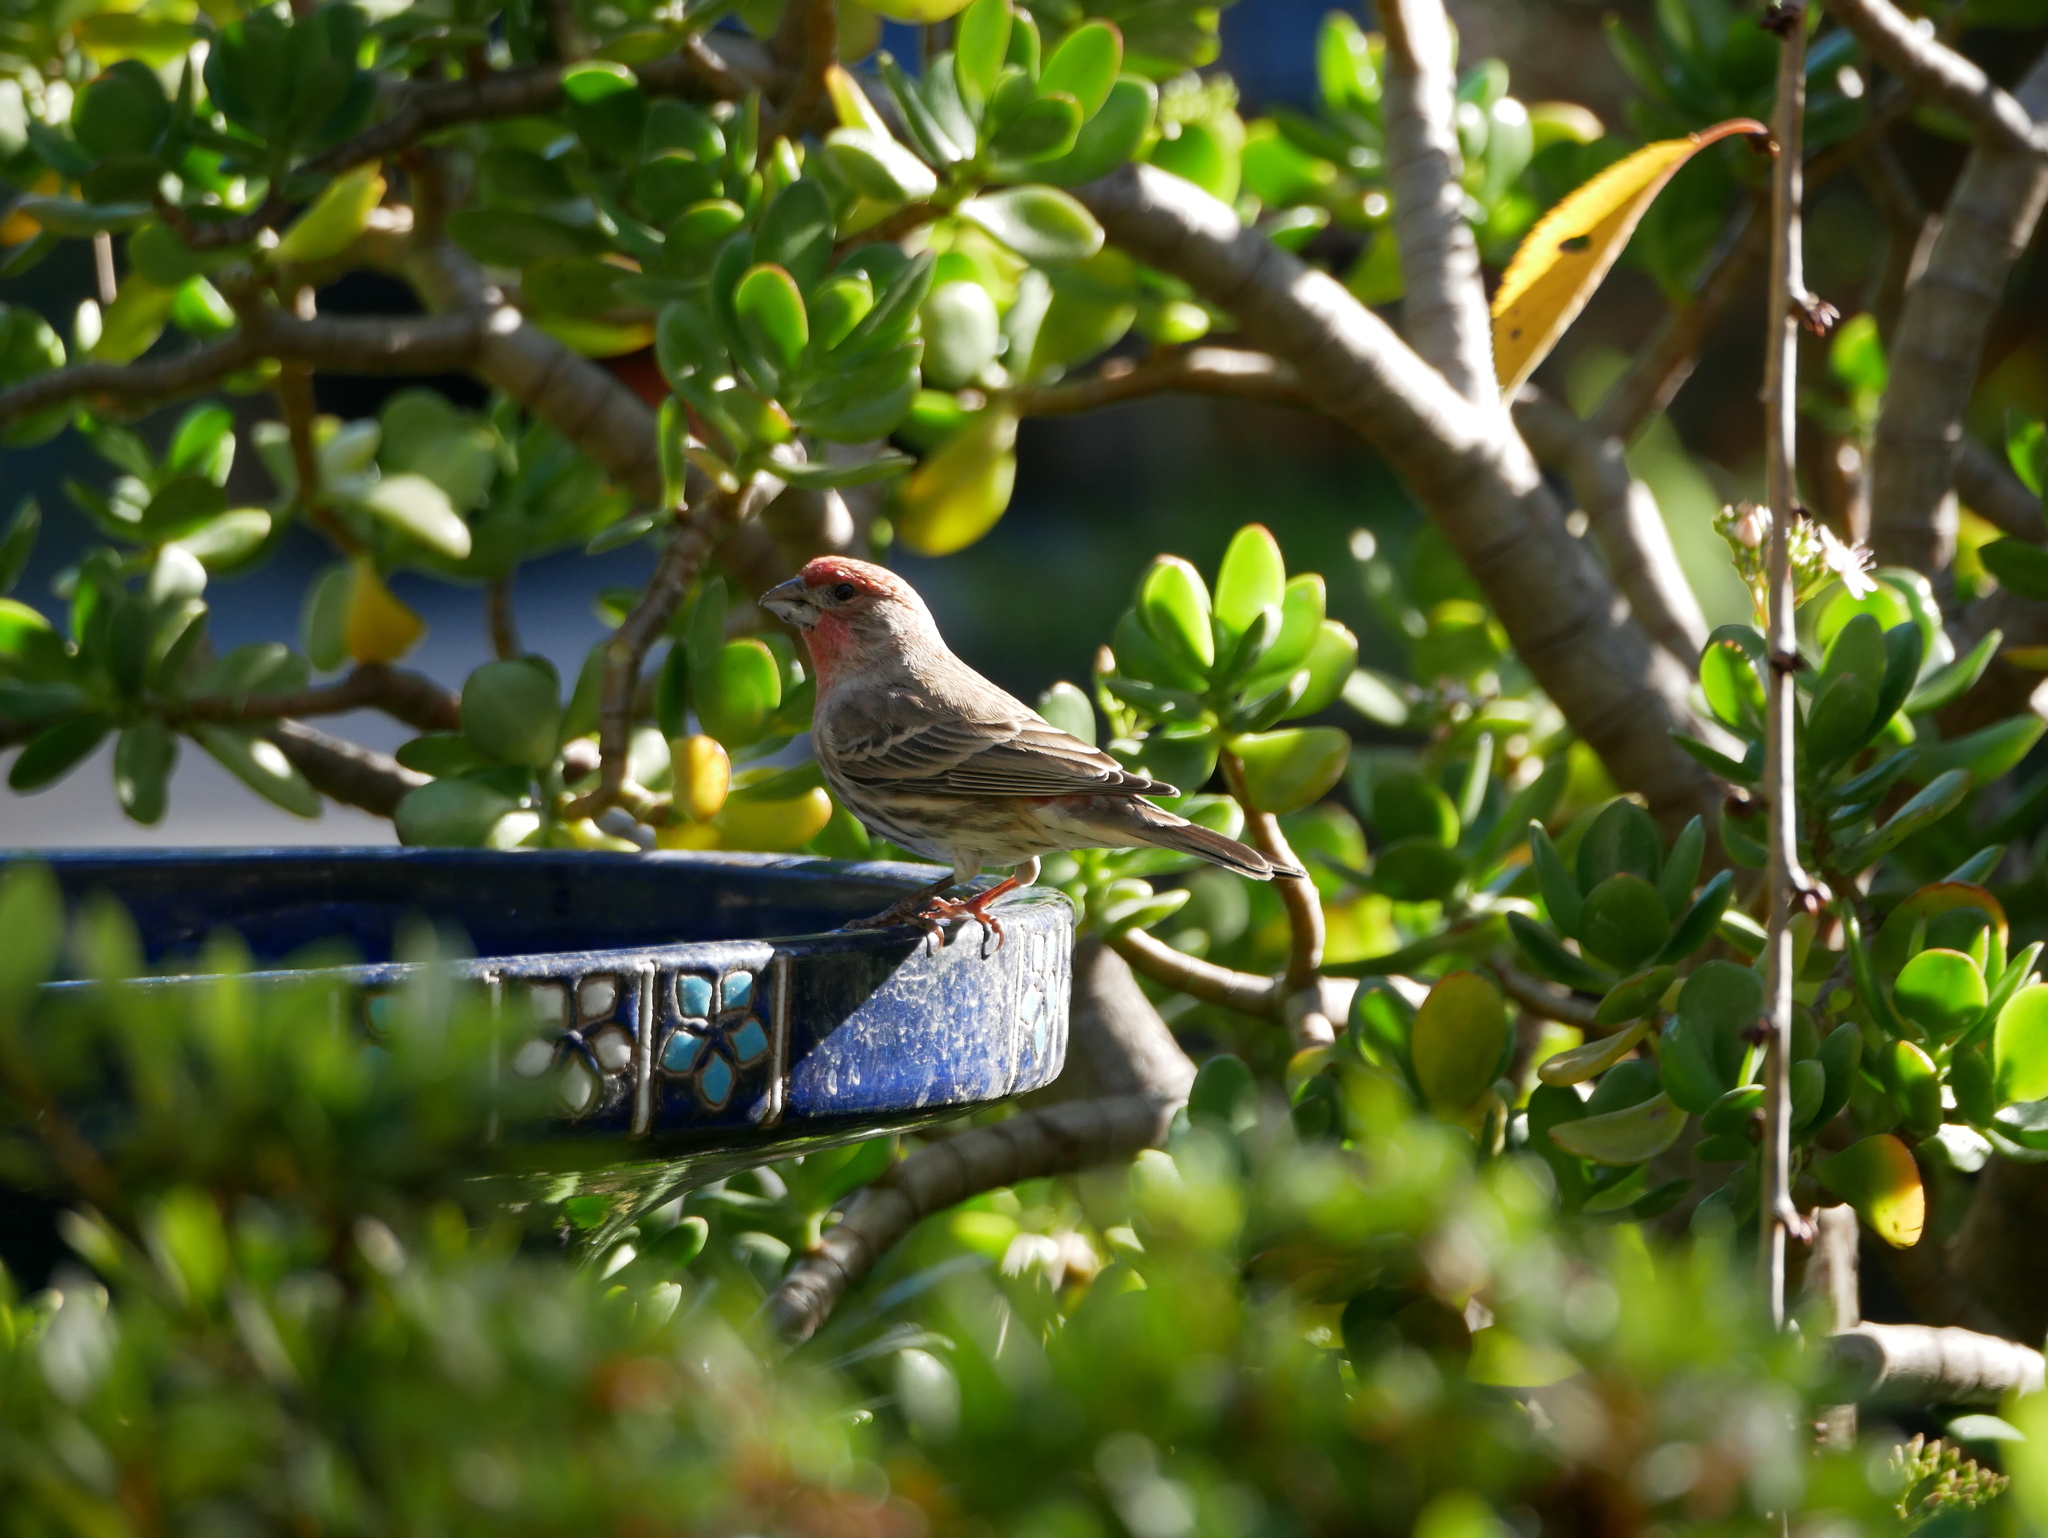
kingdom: Animalia
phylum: Chordata
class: Aves
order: Passeriformes
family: Fringillidae
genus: Haemorhous
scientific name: Haemorhous mexicanus
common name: House finch
